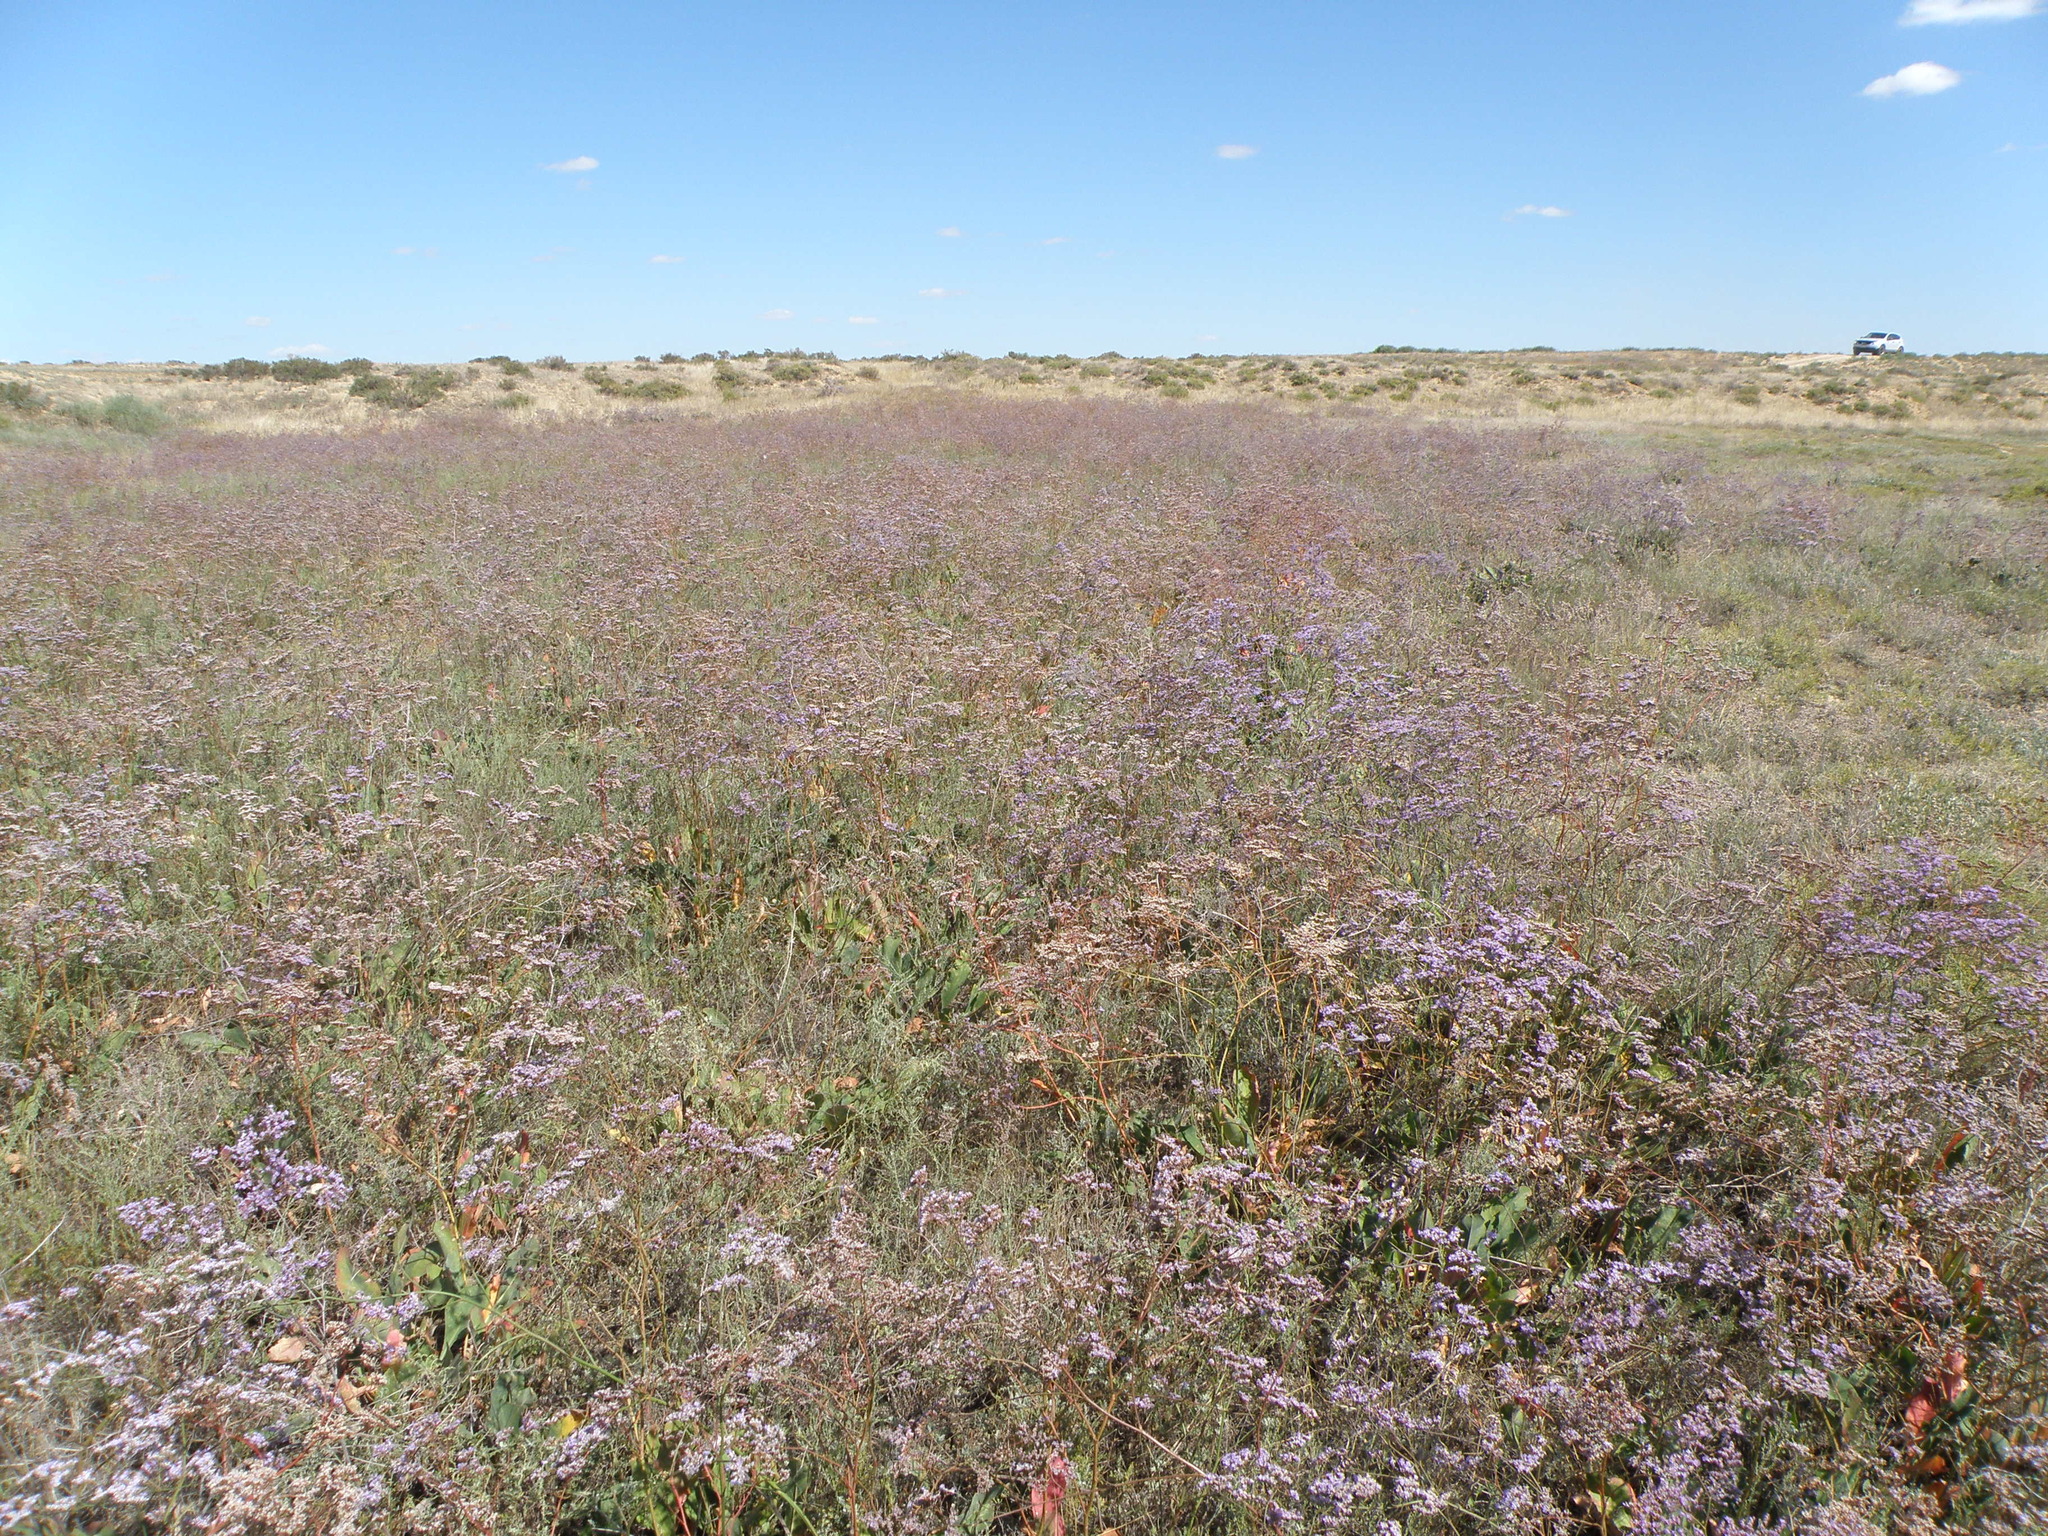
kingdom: Plantae
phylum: Tracheophyta
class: Magnoliopsida
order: Caryophyllales
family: Plumbaginaceae
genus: Limonium
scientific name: Limonium gmelini
